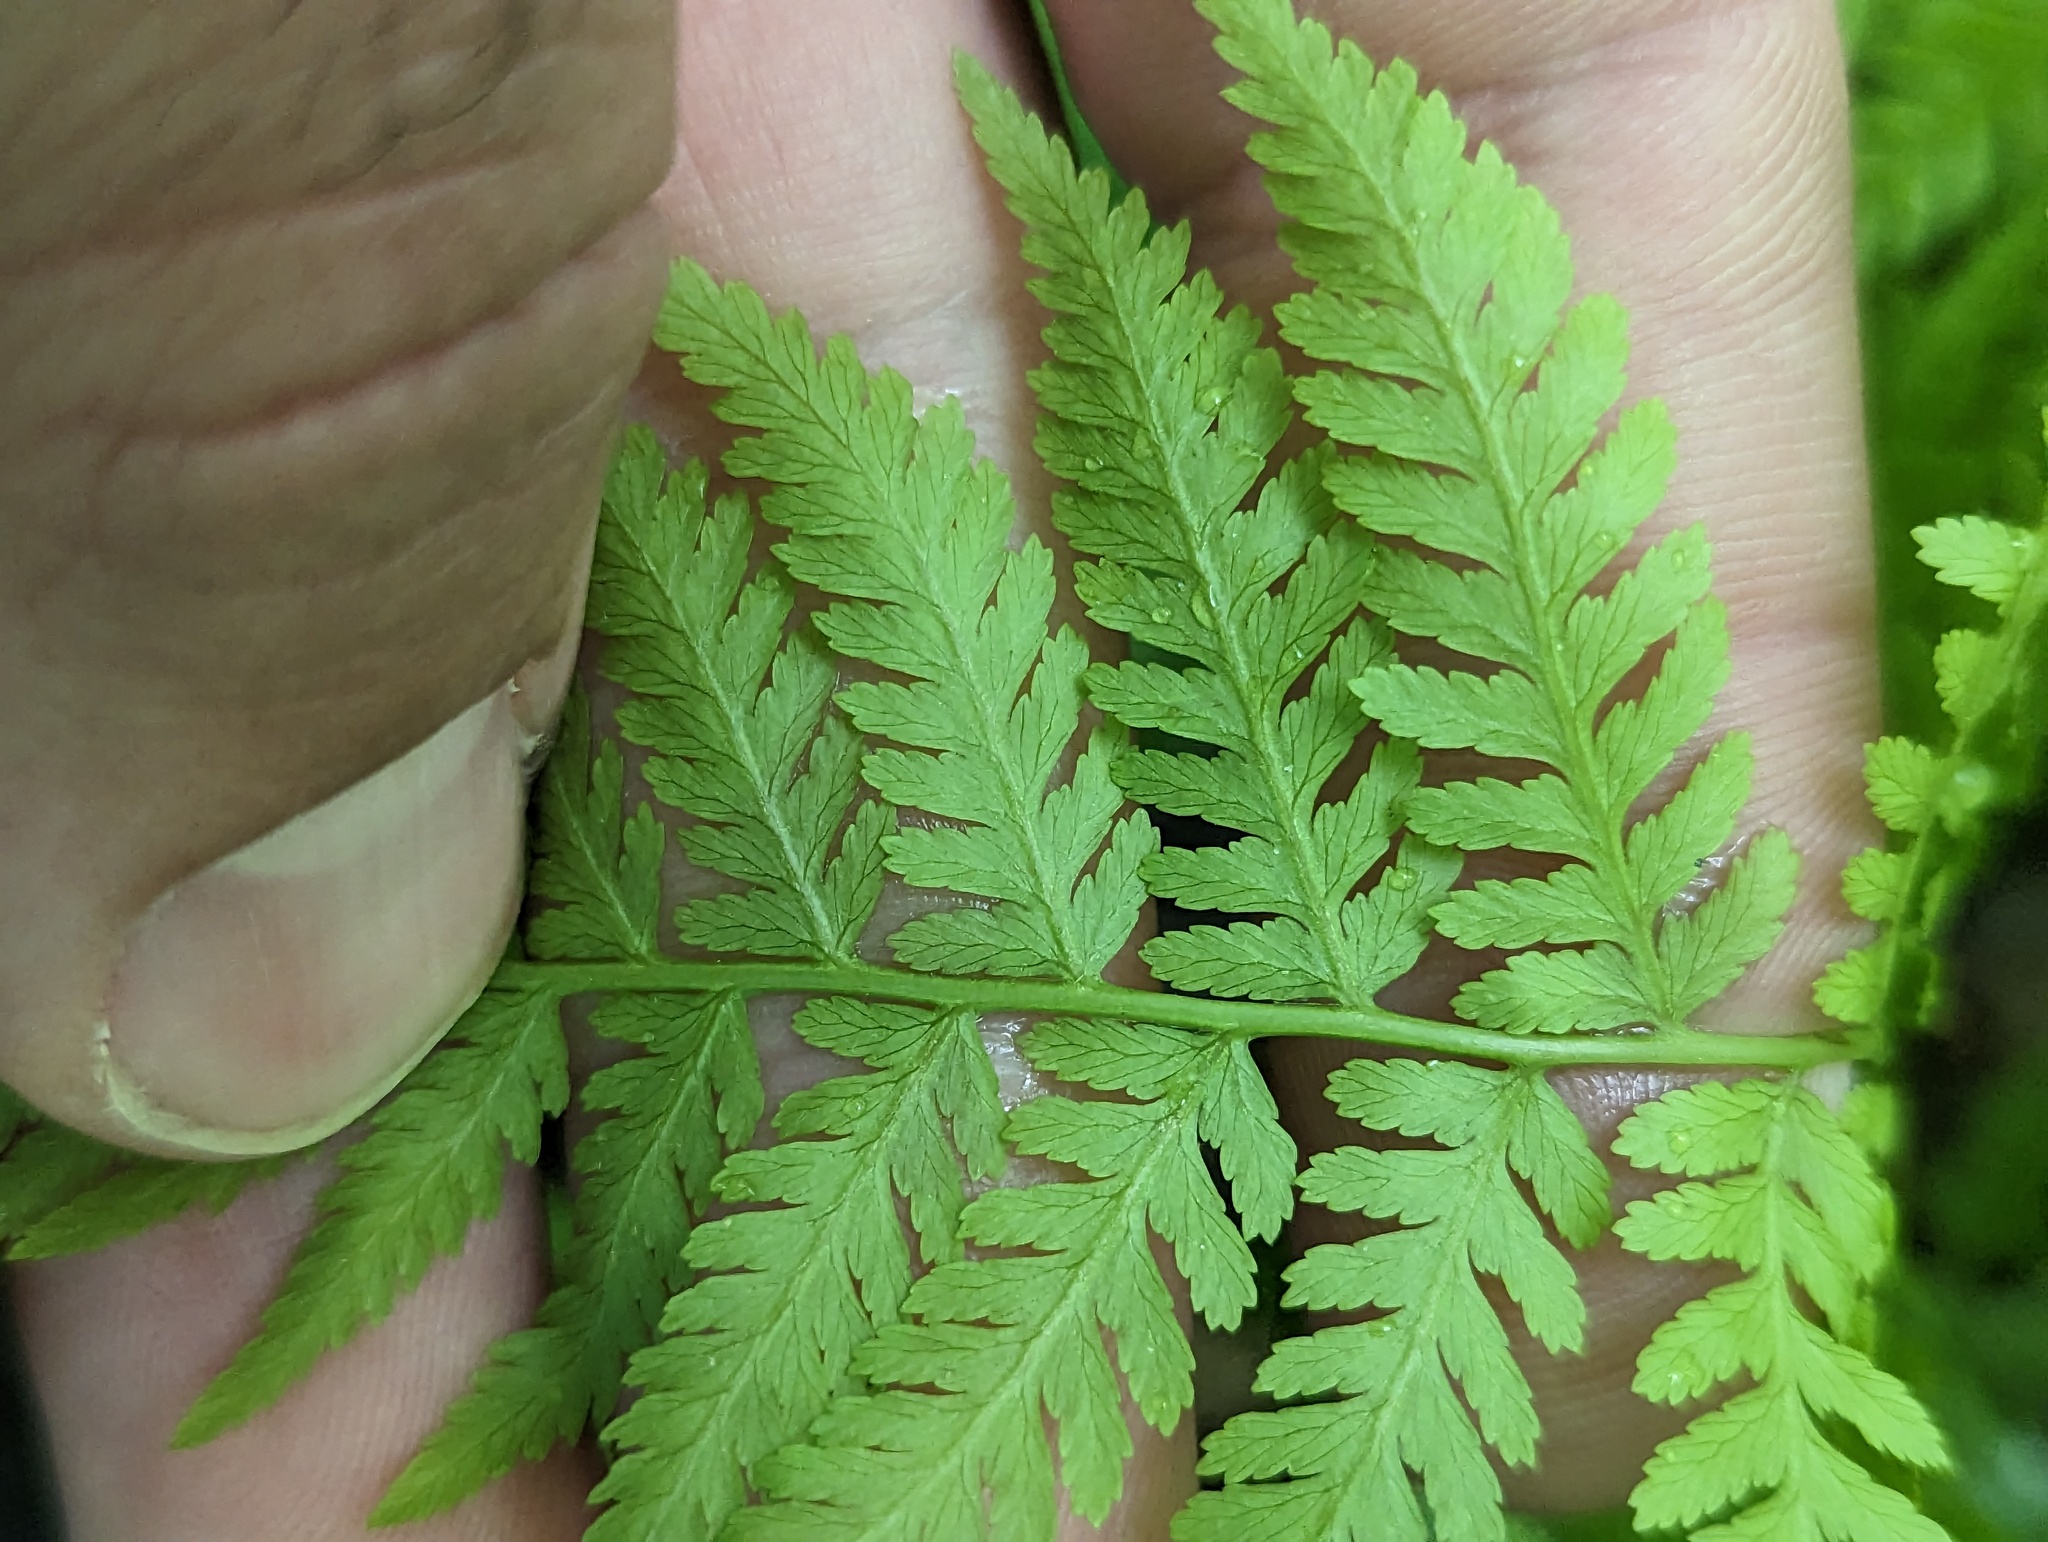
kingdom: Plantae
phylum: Tracheophyta
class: Polypodiopsida
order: Polypodiales
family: Athyriaceae
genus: Athyrium
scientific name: Athyrium asplenioides
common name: Southern lady fern
